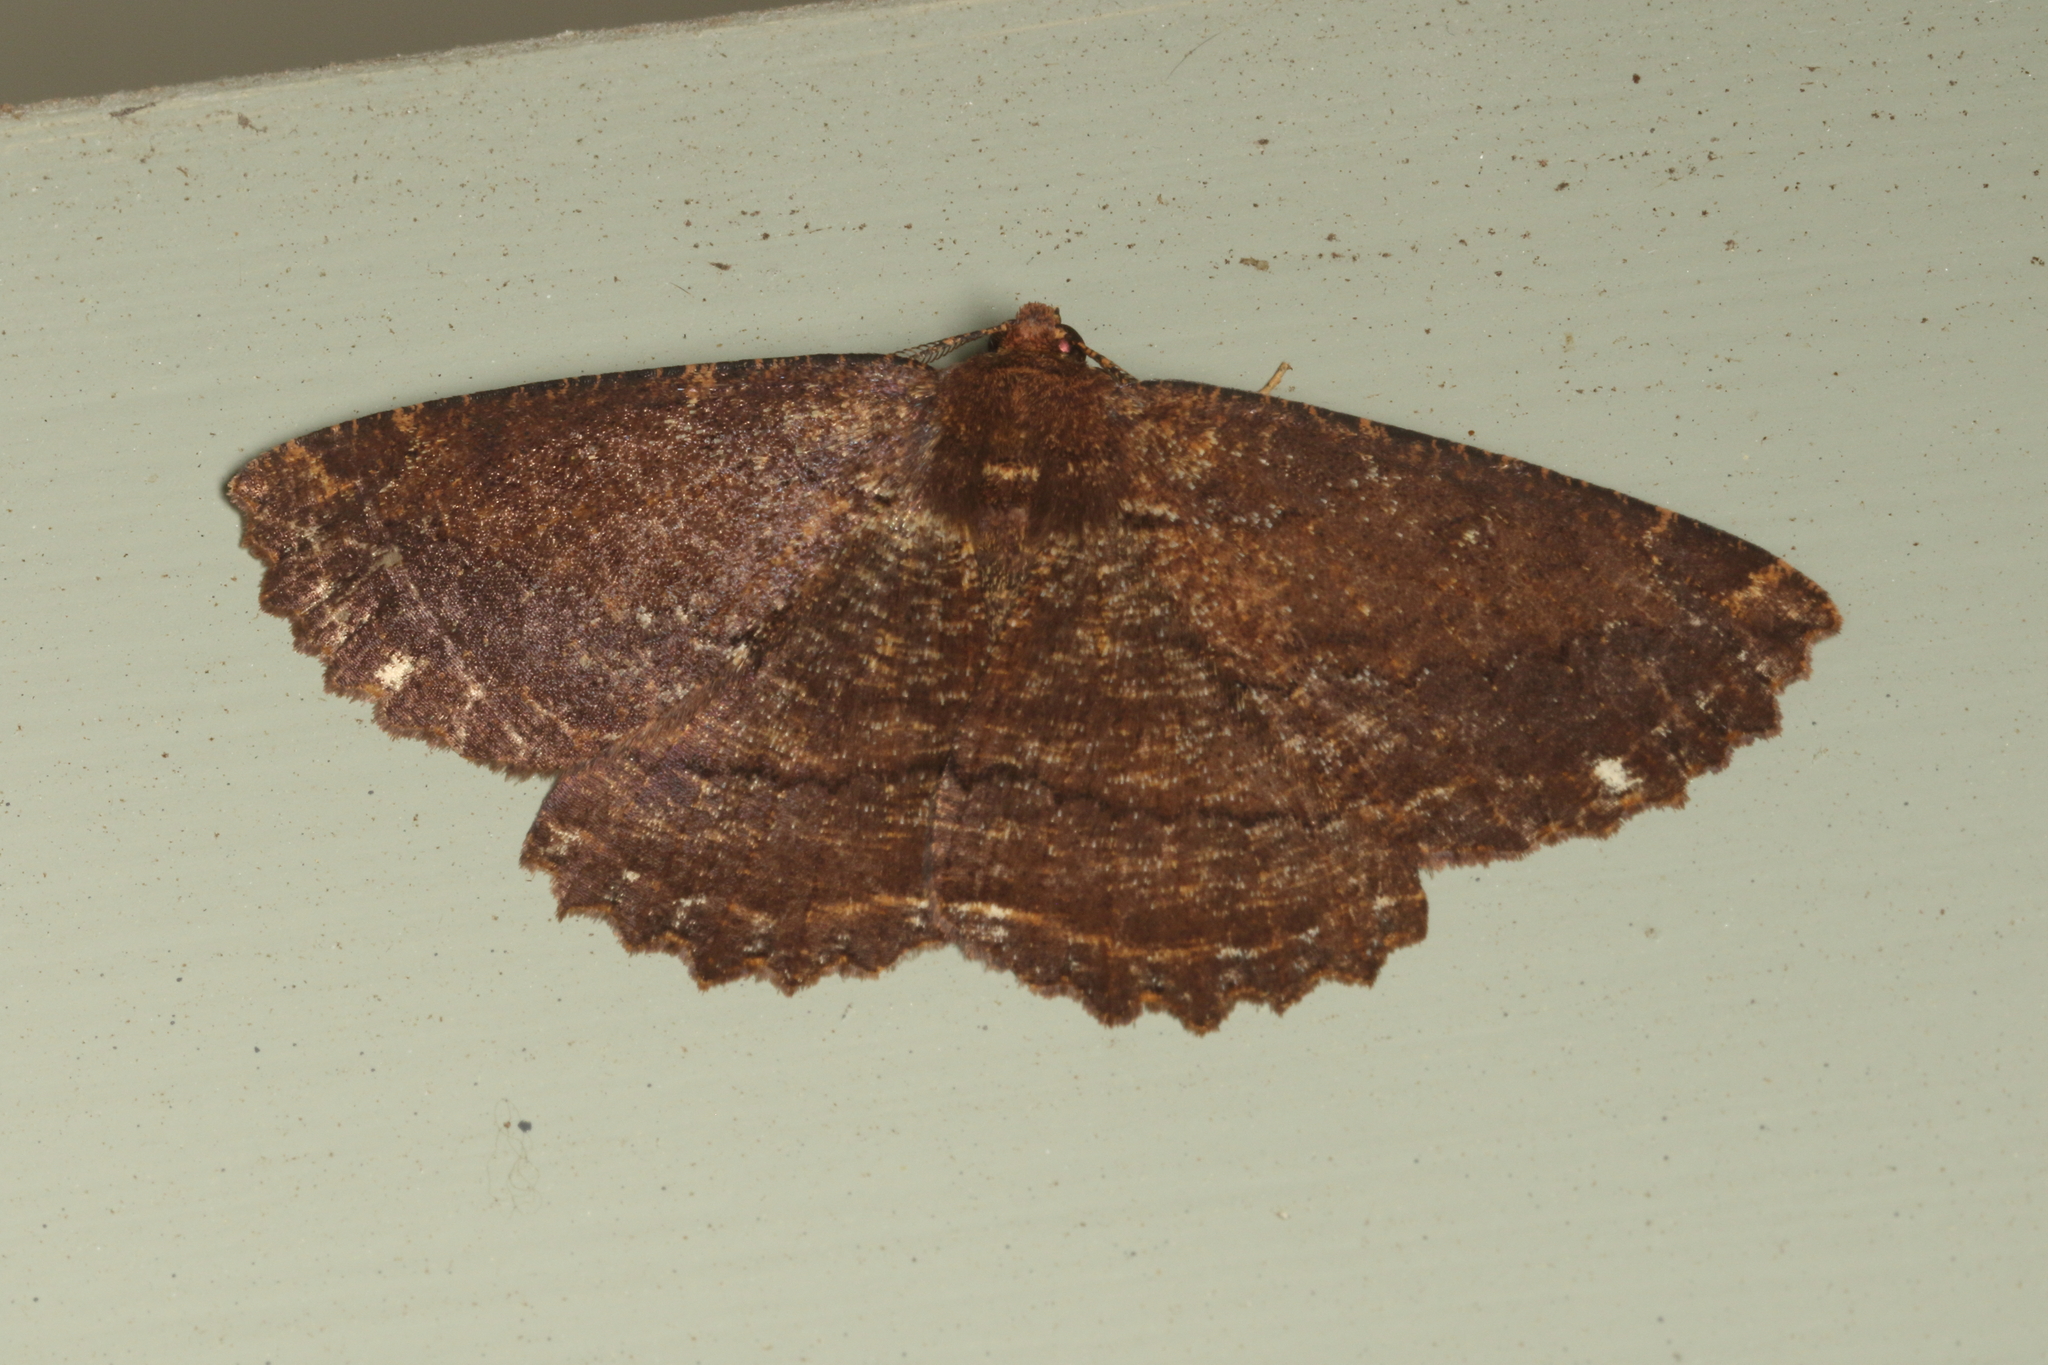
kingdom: Animalia
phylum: Arthropoda
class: Insecta
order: Lepidoptera
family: Geometridae
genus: Gellonia
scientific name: Gellonia dejectaria
